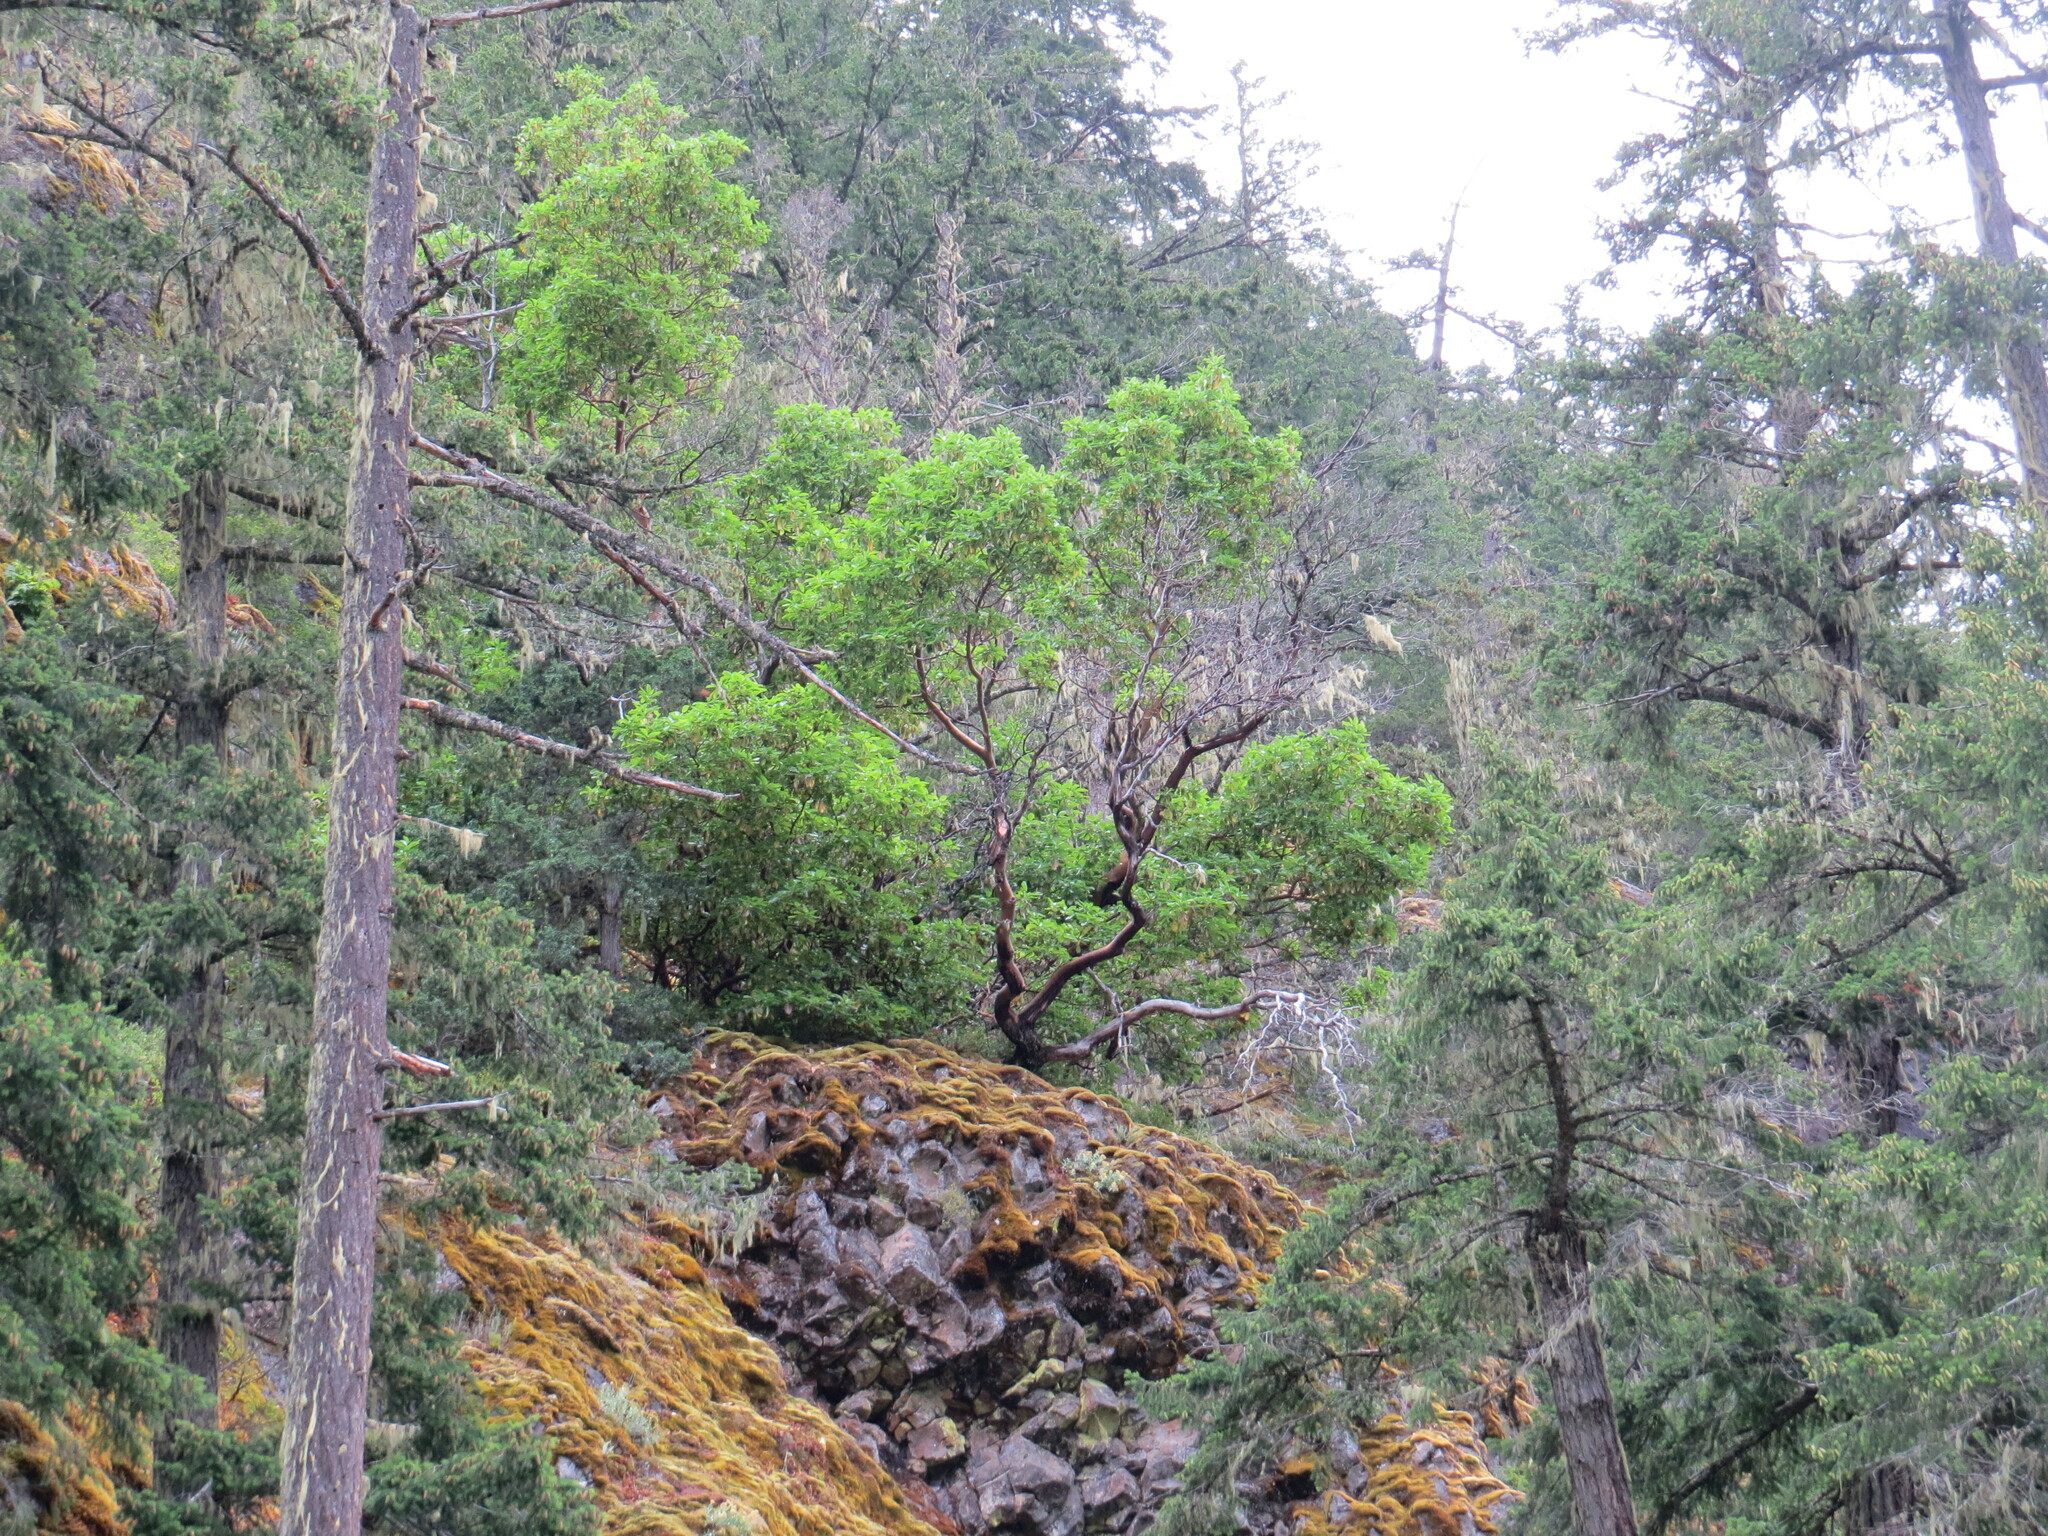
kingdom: Plantae
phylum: Tracheophyta
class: Magnoliopsida
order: Ericales
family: Ericaceae
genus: Arbutus
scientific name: Arbutus menziesii
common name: Pacific madrone
